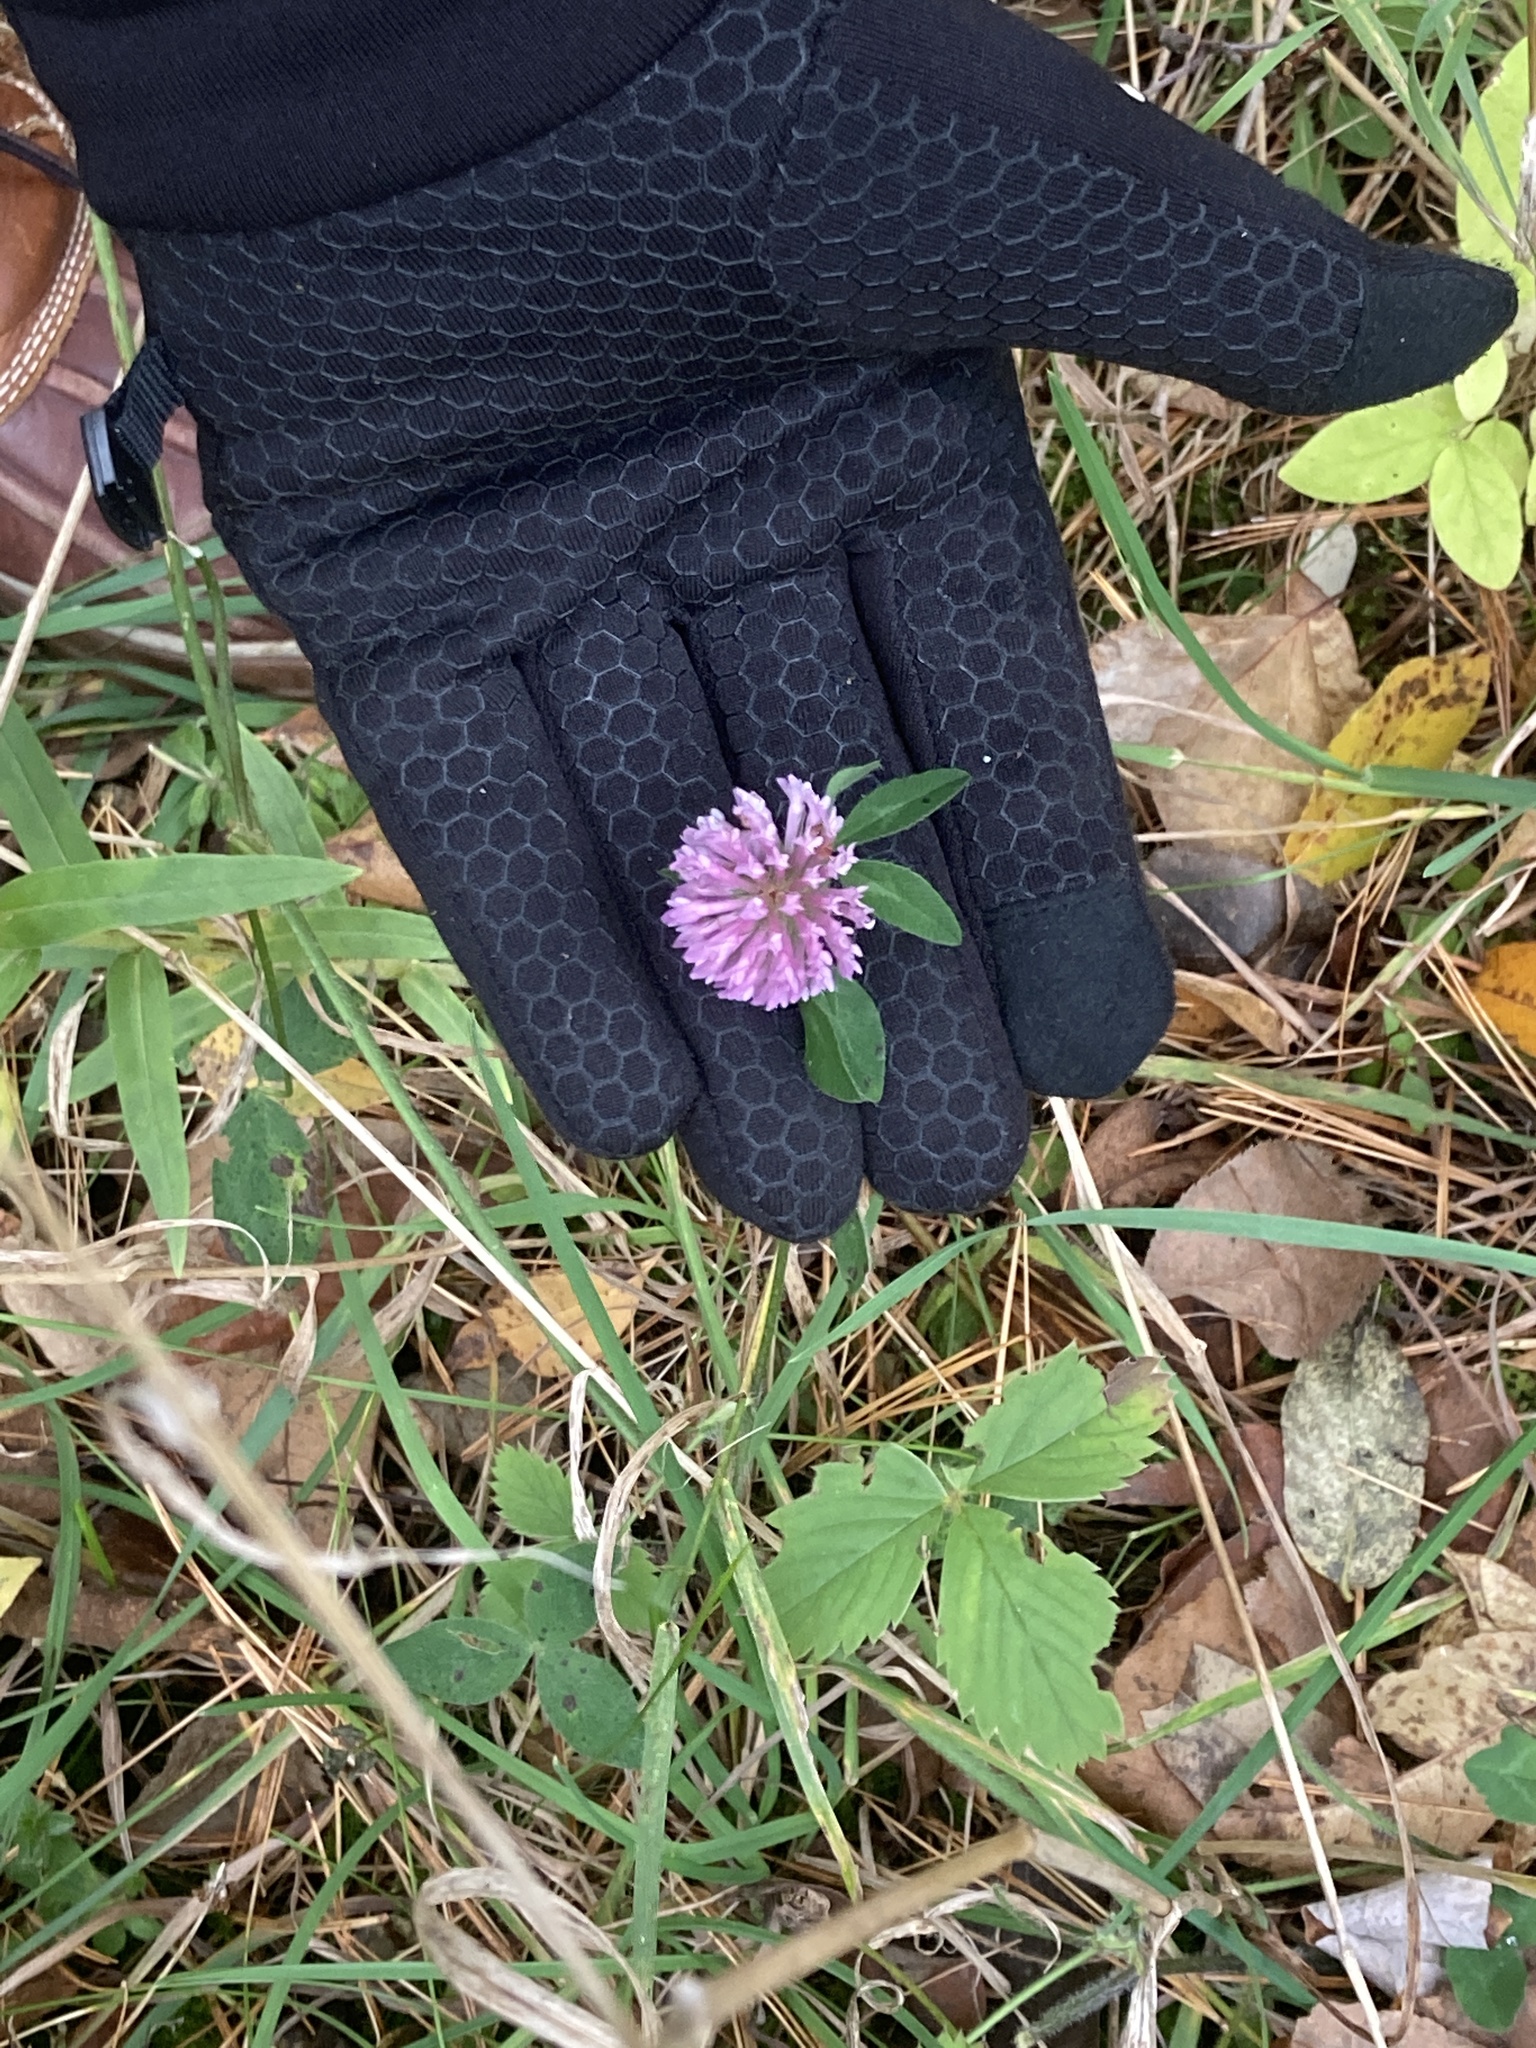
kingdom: Plantae
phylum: Tracheophyta
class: Magnoliopsida
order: Fabales
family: Fabaceae
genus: Trifolium
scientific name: Trifolium pratense
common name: Red clover
